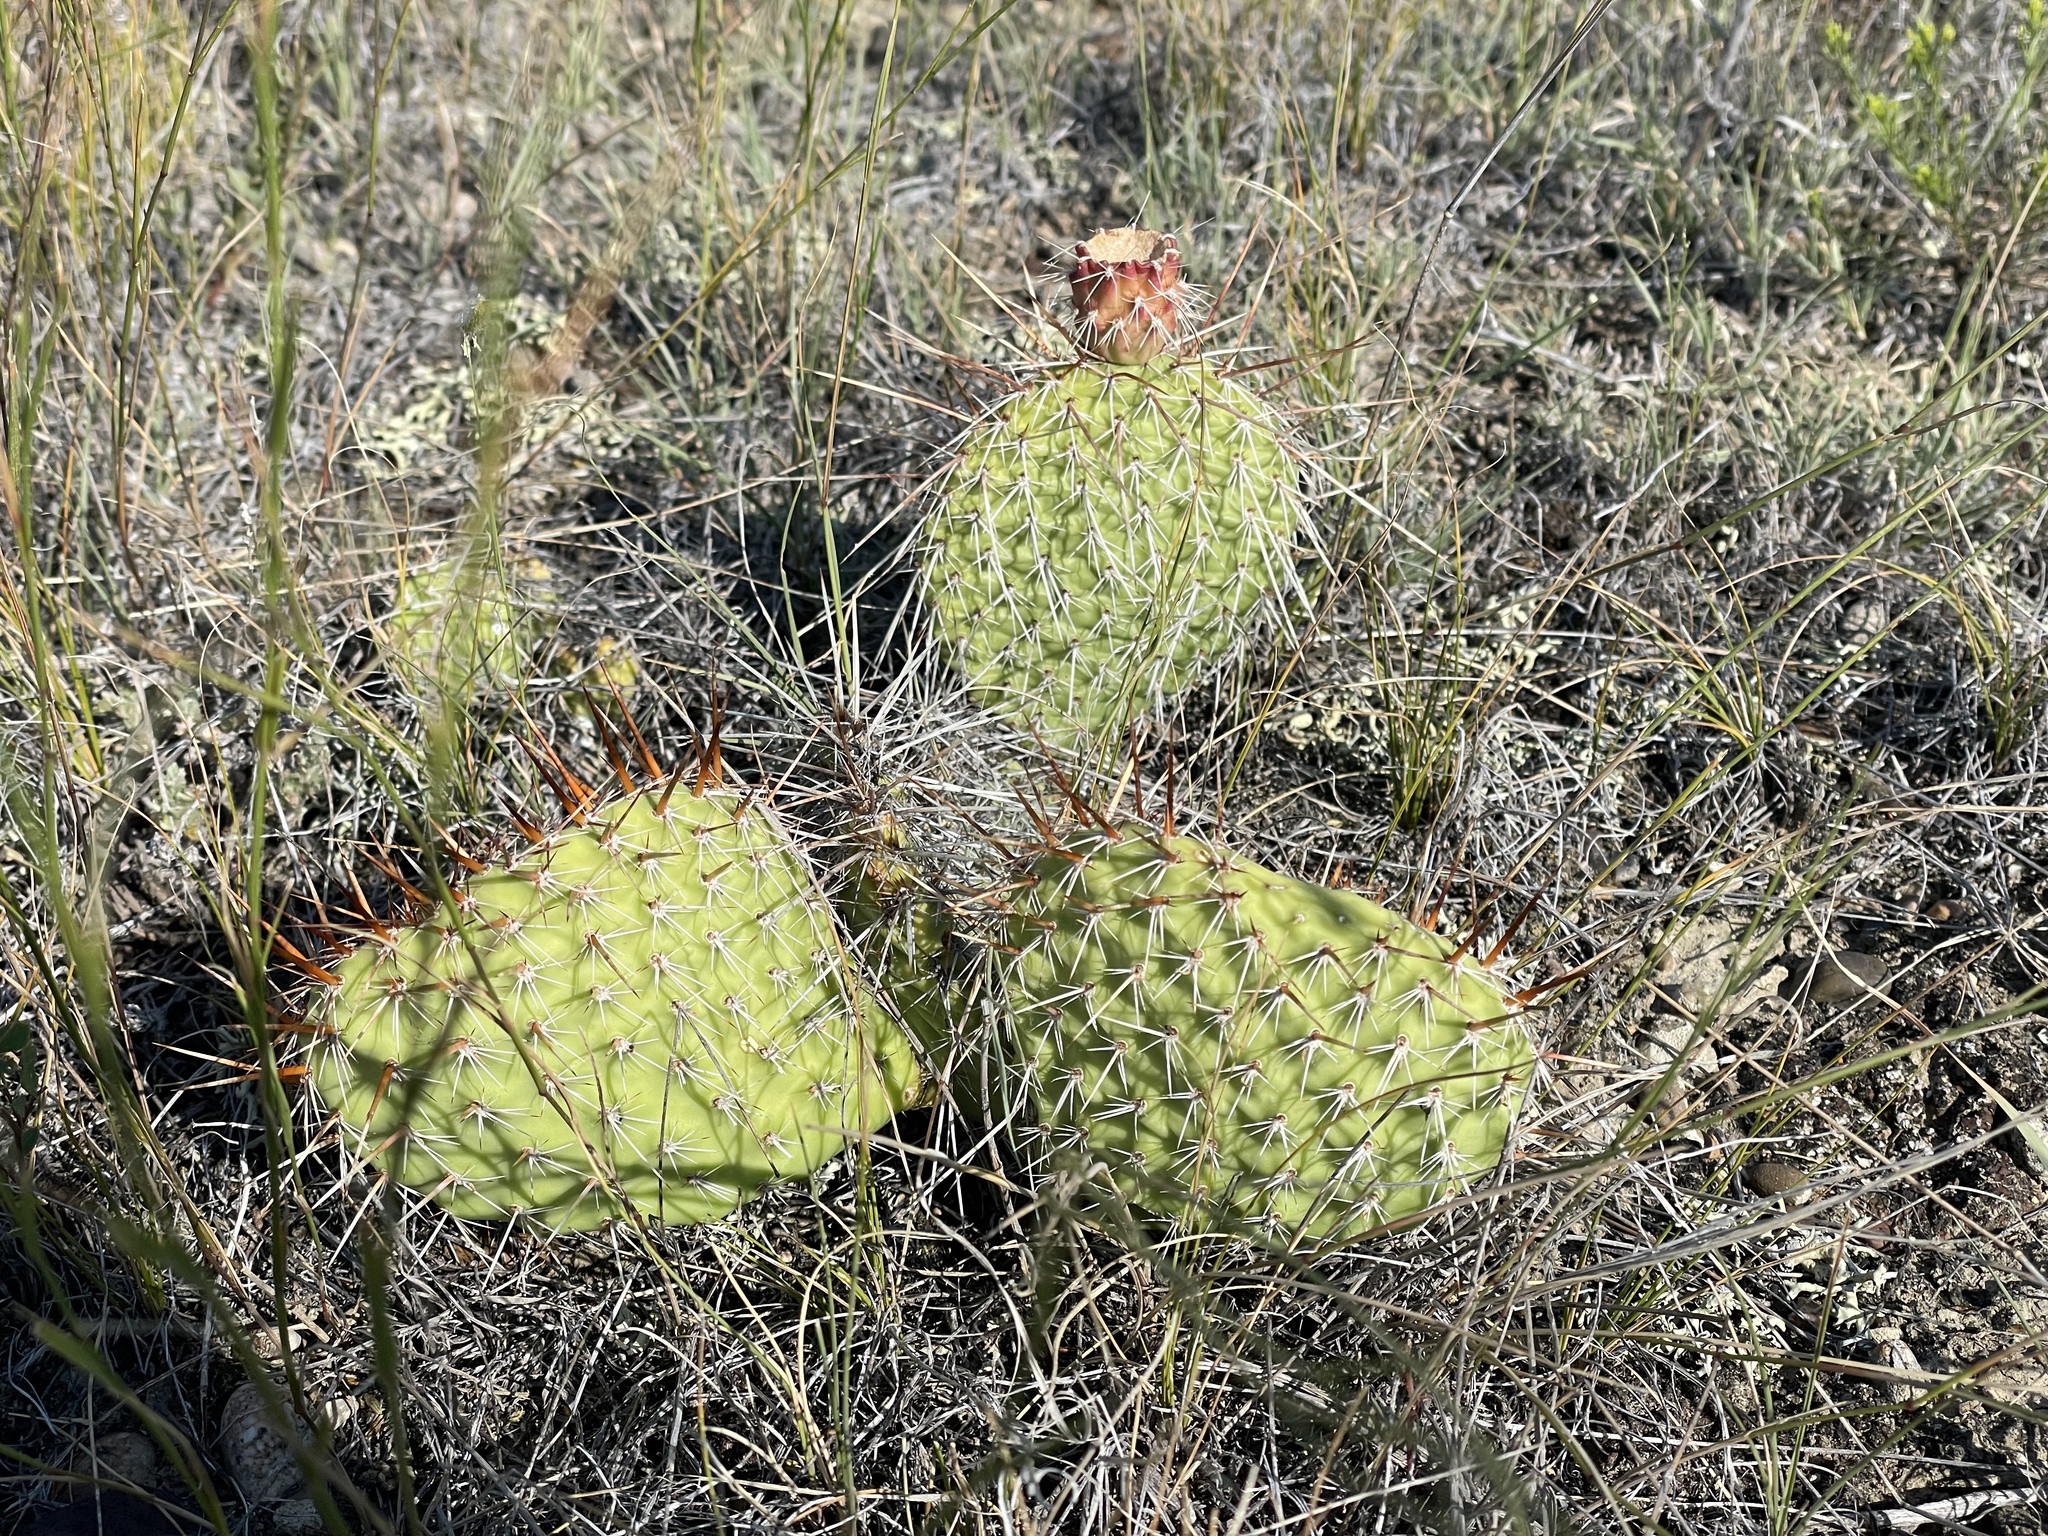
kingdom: Plantae
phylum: Tracheophyta
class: Magnoliopsida
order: Caryophyllales
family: Cactaceae
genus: Opuntia
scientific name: Opuntia polyacantha
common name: Plains prickly-pear
